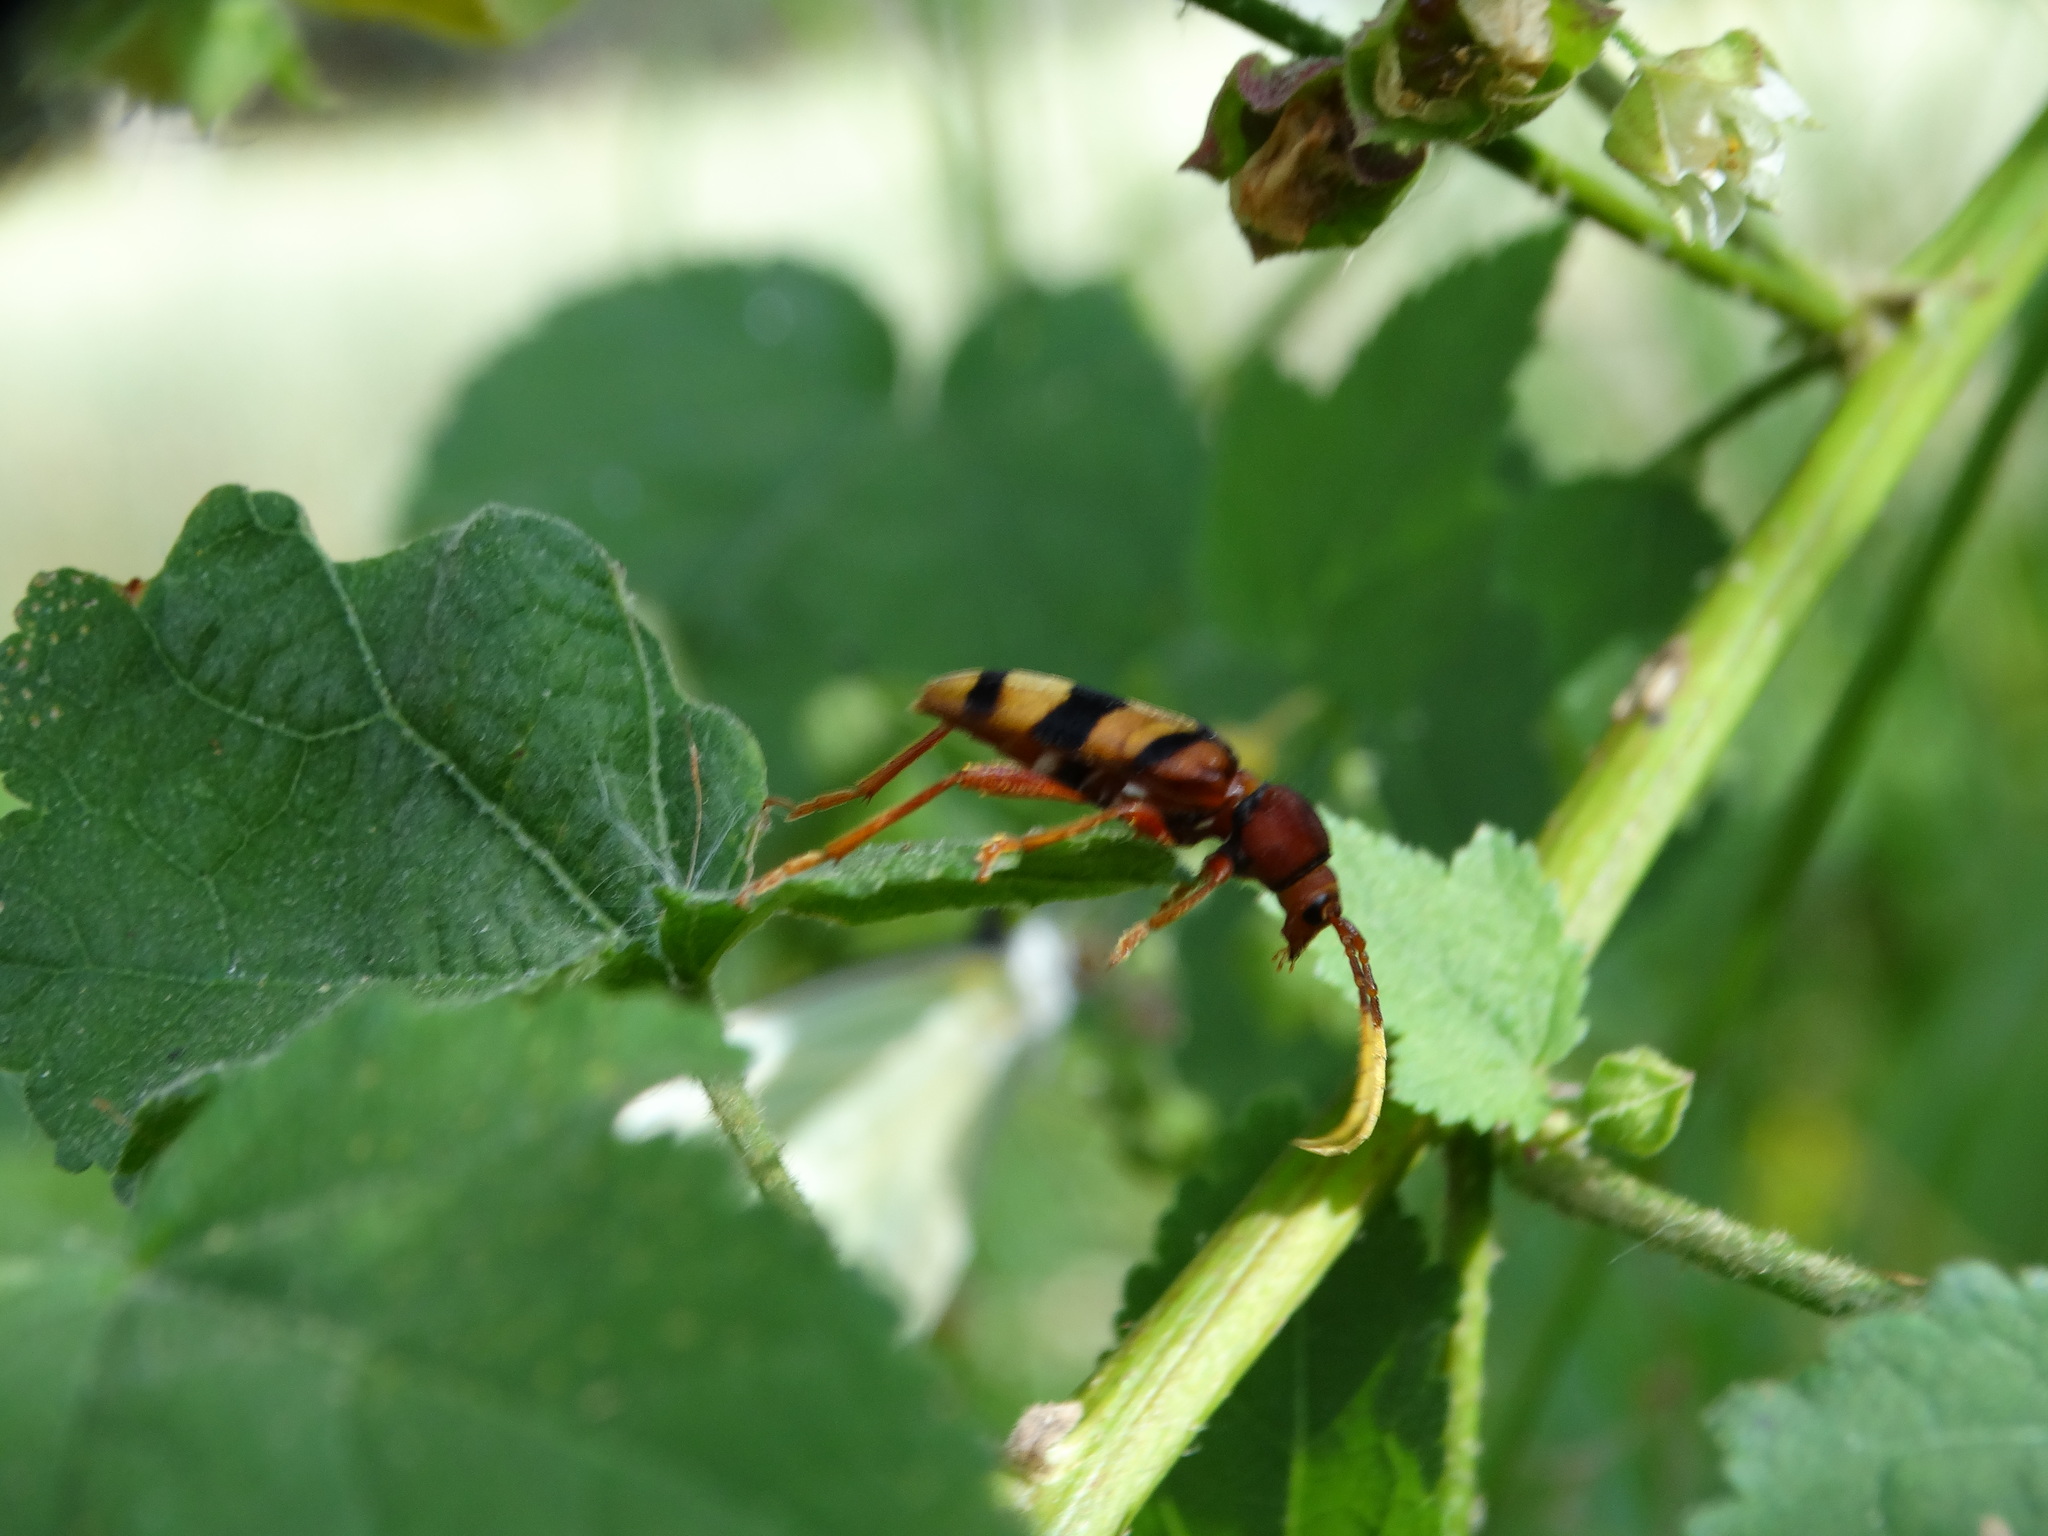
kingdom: Animalia
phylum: Arthropoda
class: Insecta
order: Coleoptera
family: Cerambycidae
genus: Dexithea
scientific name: Dexithea klugii
